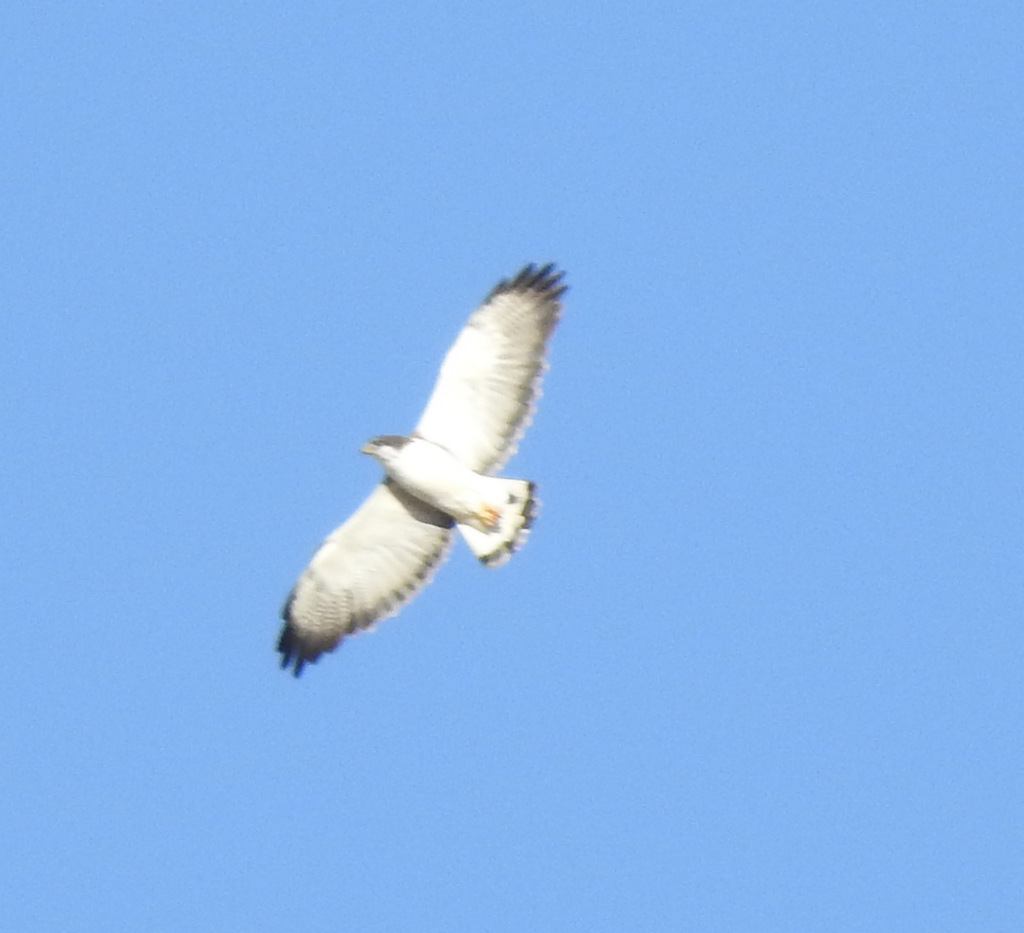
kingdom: Animalia
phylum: Chordata
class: Aves
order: Accipitriformes
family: Accipitridae
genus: Buteo
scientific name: Buteo polyosoma
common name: Variable hawk
